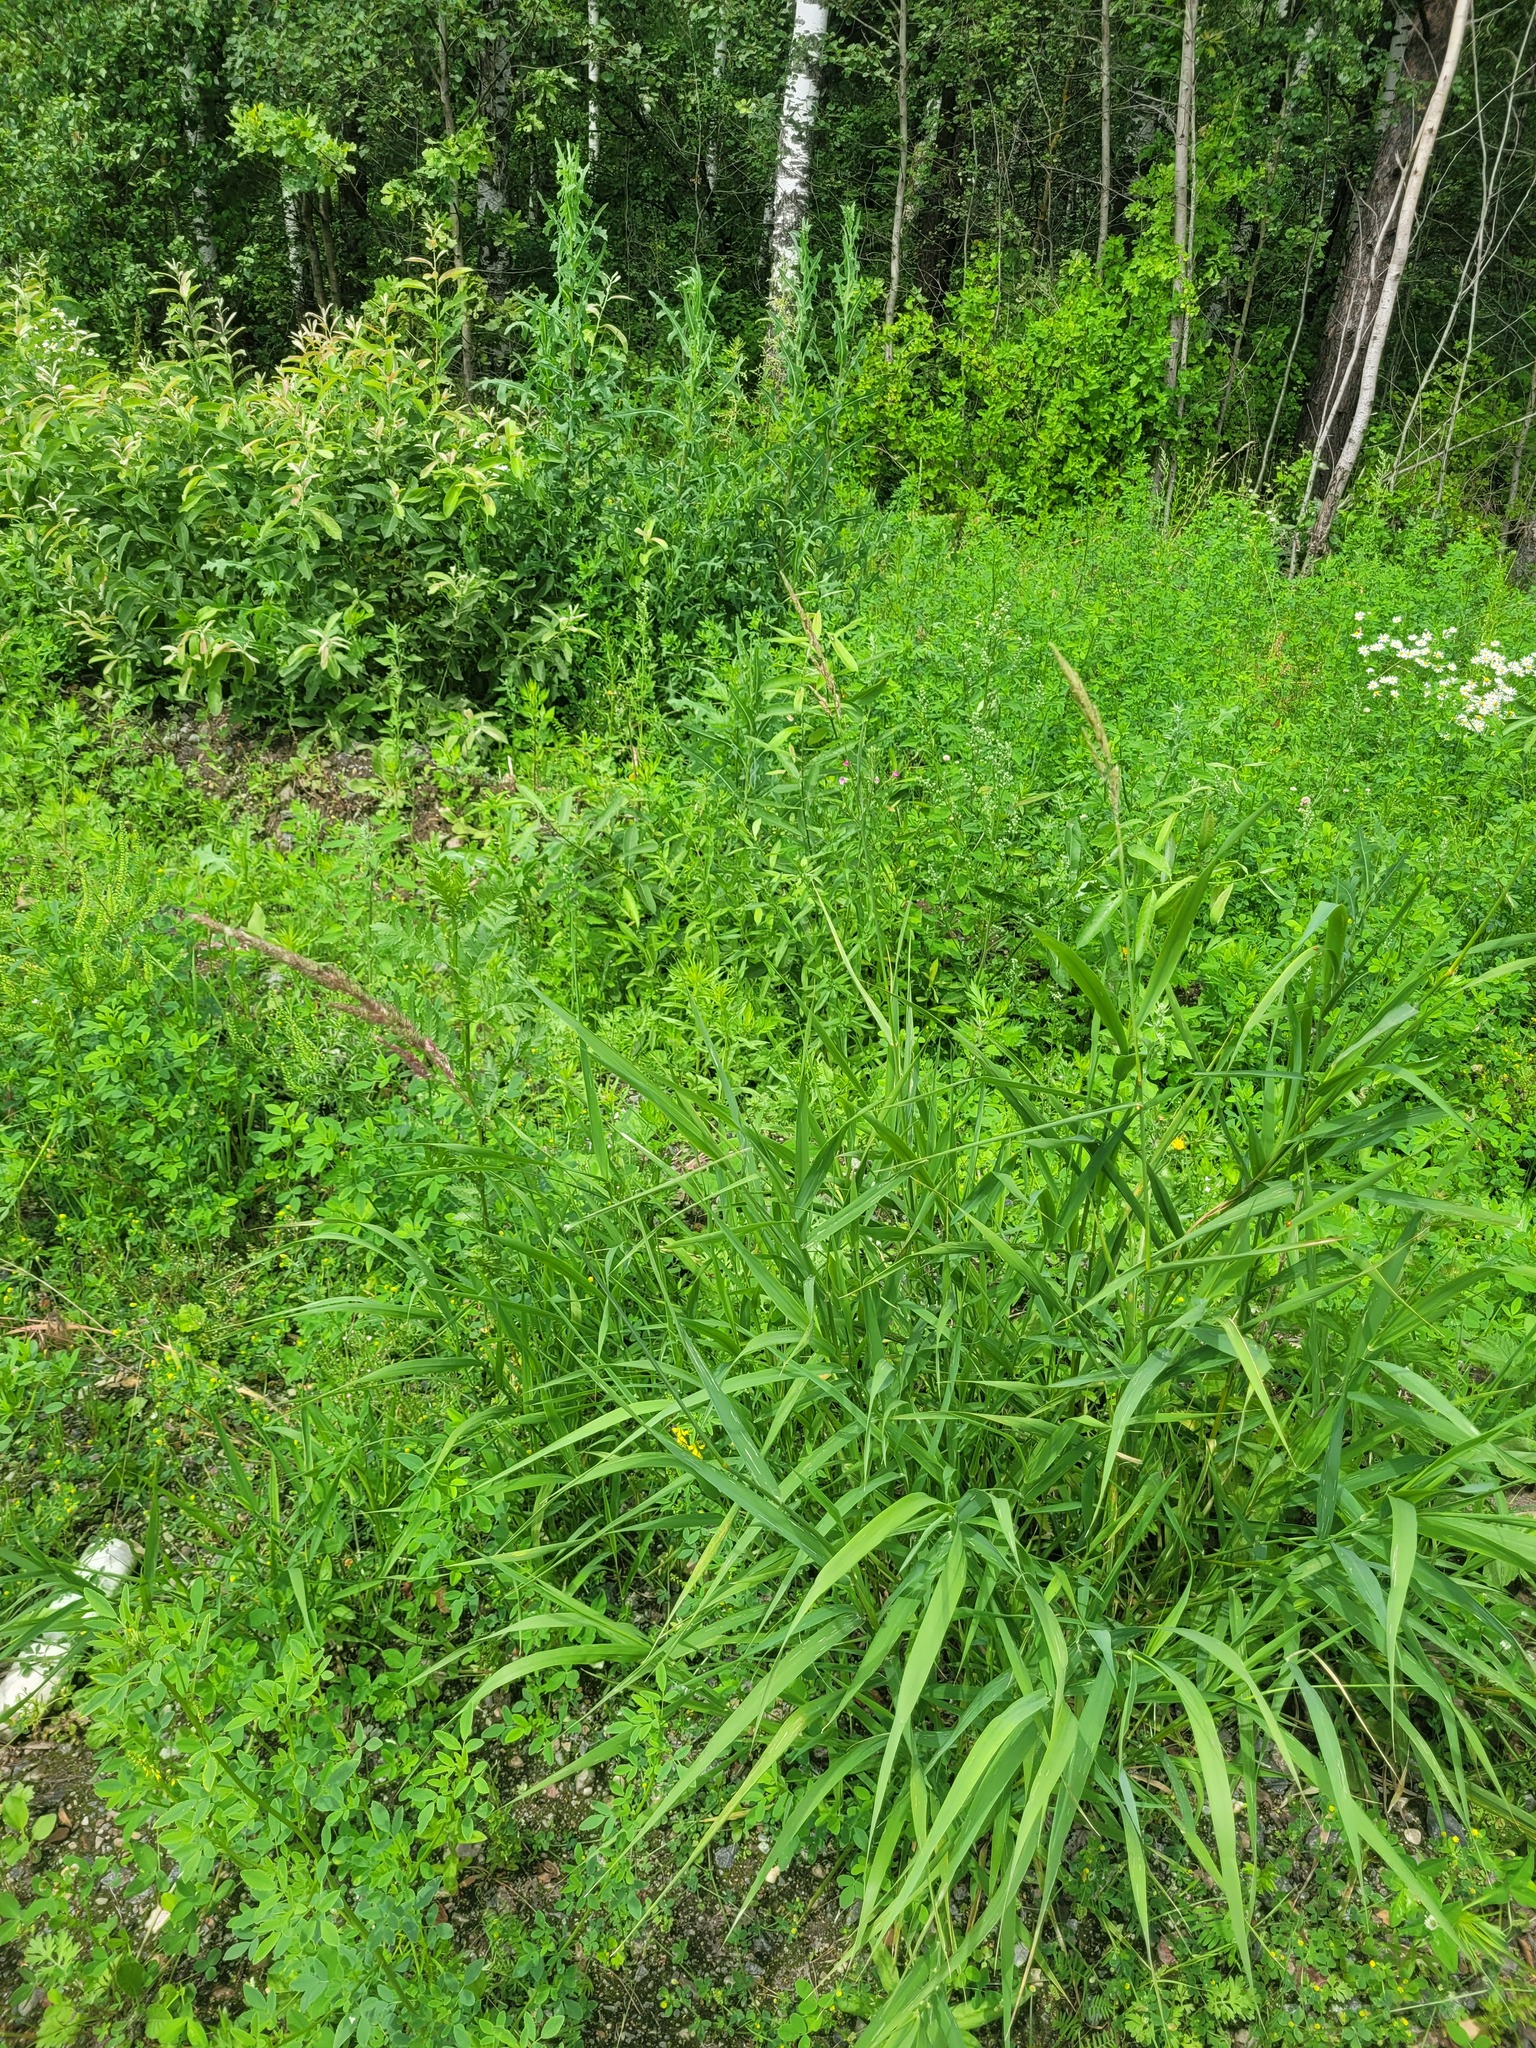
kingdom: Plantae
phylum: Tracheophyta
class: Liliopsida
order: Poales
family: Poaceae
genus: Phalaris
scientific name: Phalaris arundinacea
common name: Reed canary-grass
